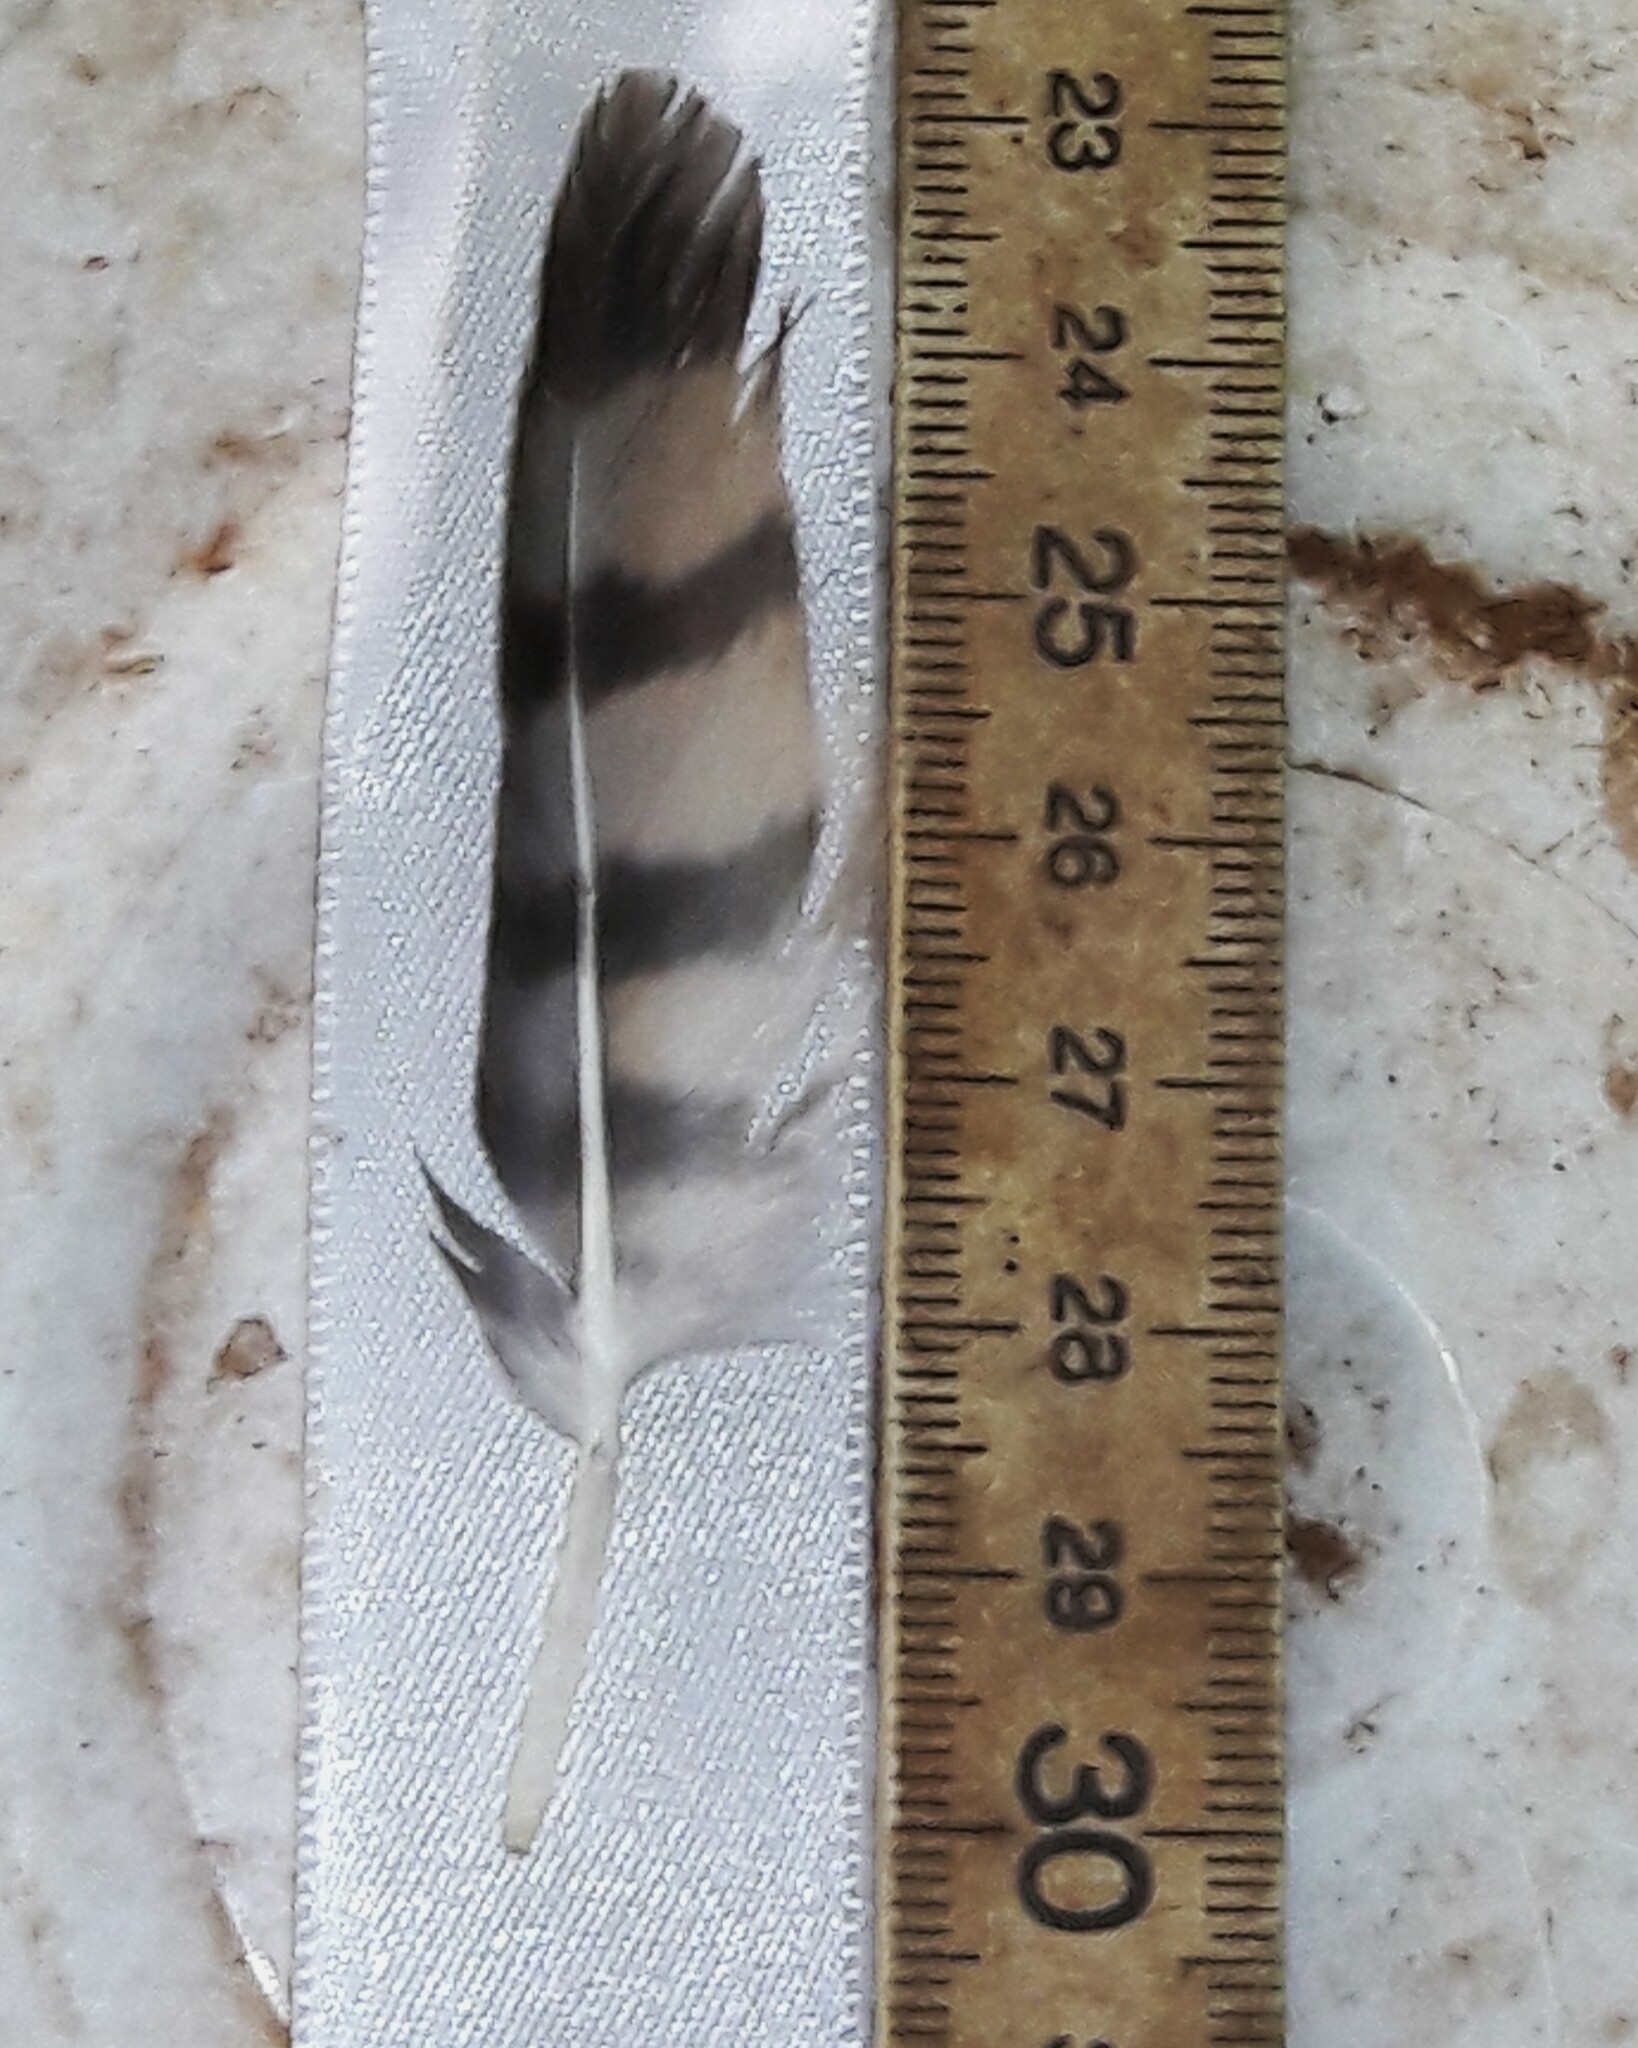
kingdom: Animalia
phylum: Chordata
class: Aves
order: Accipitriformes
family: Accipitridae
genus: Rupornis
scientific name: Rupornis magnirostris
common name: Roadside hawk
